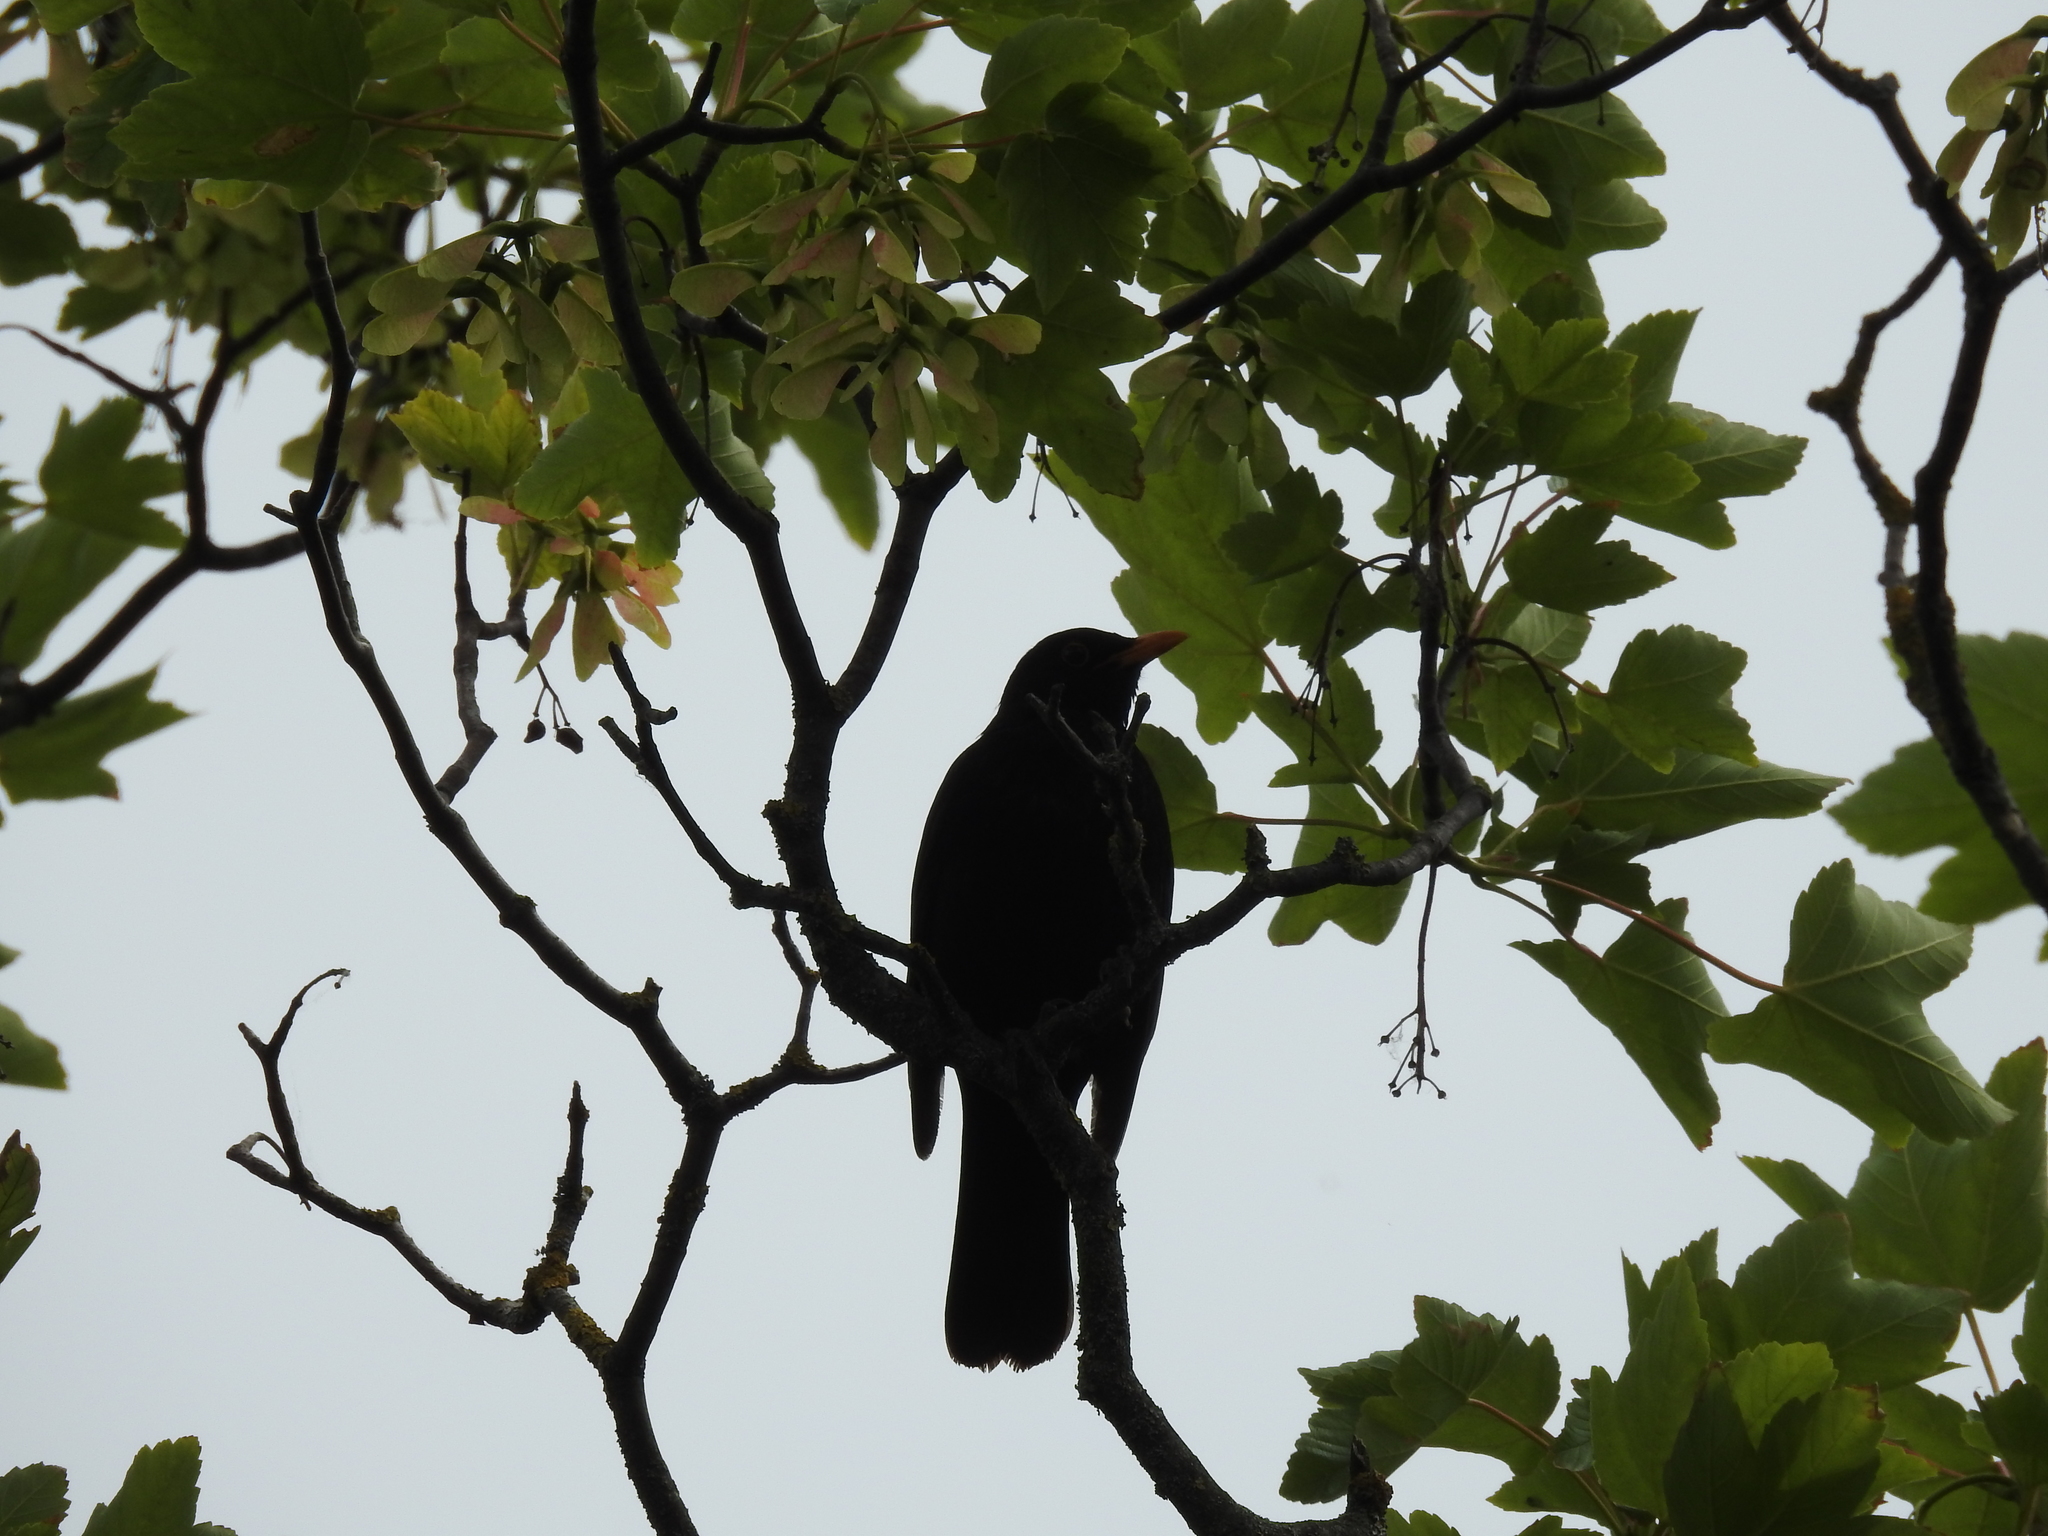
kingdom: Animalia
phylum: Chordata
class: Aves
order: Passeriformes
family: Turdidae
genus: Turdus
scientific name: Turdus merula
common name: Common blackbird
